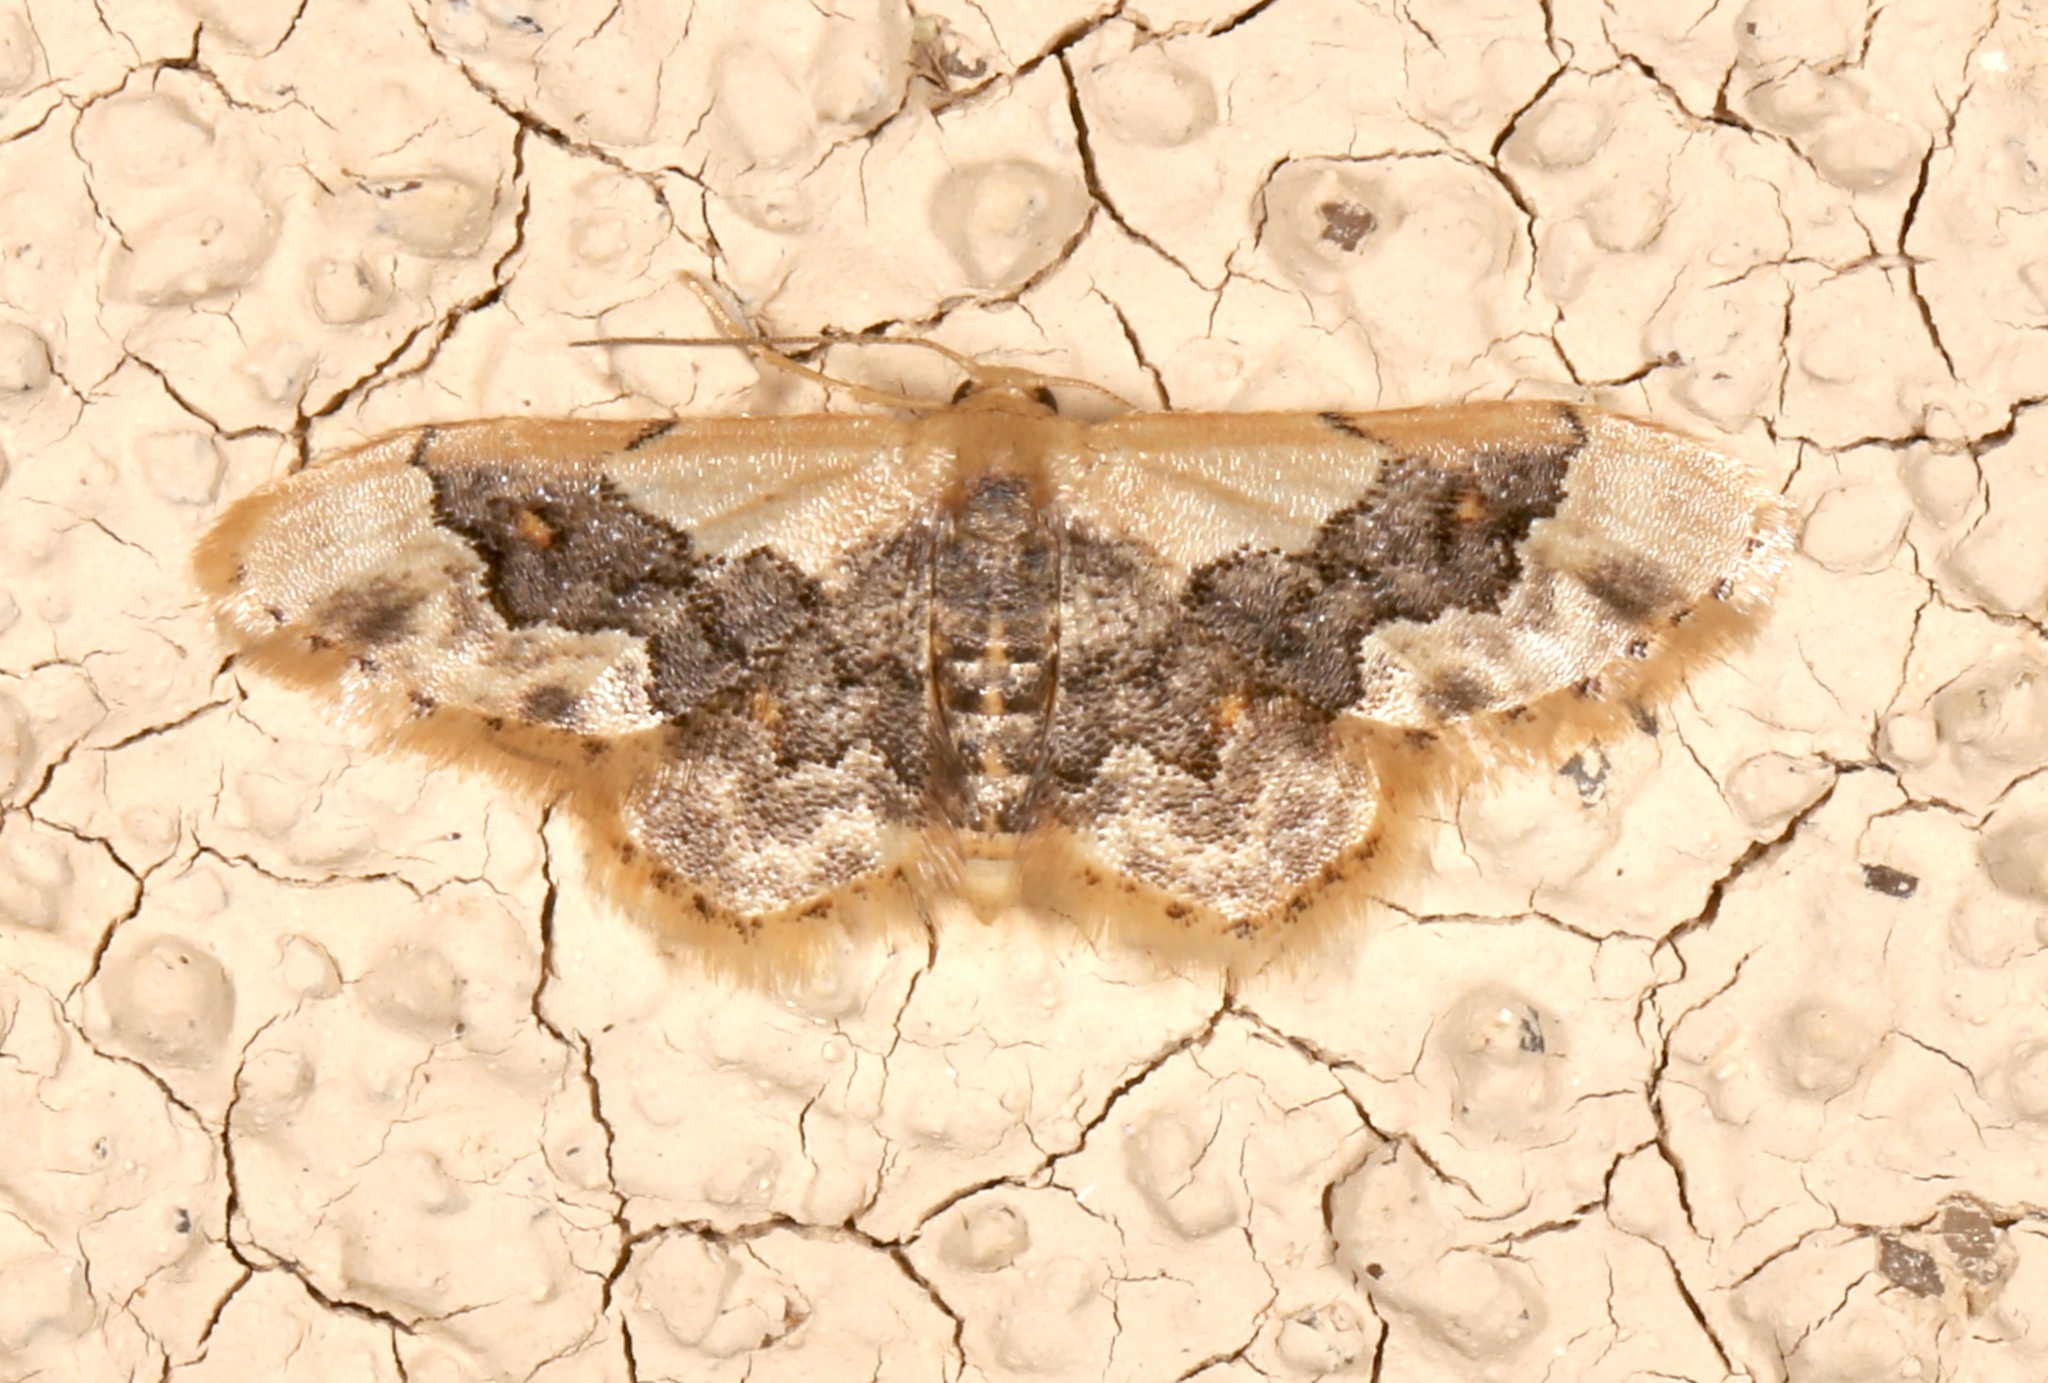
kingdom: Animalia
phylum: Arthropoda
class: Insecta
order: Lepidoptera
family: Geometridae
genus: Idaea
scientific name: Idaea gemmata
